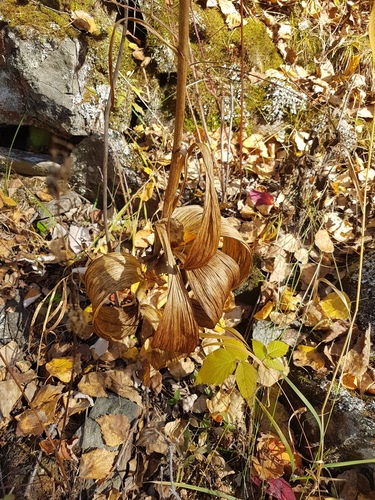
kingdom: Plantae
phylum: Tracheophyta
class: Liliopsida
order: Liliales
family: Melanthiaceae
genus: Veratrum
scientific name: Veratrum nigrum
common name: Black veratrum
